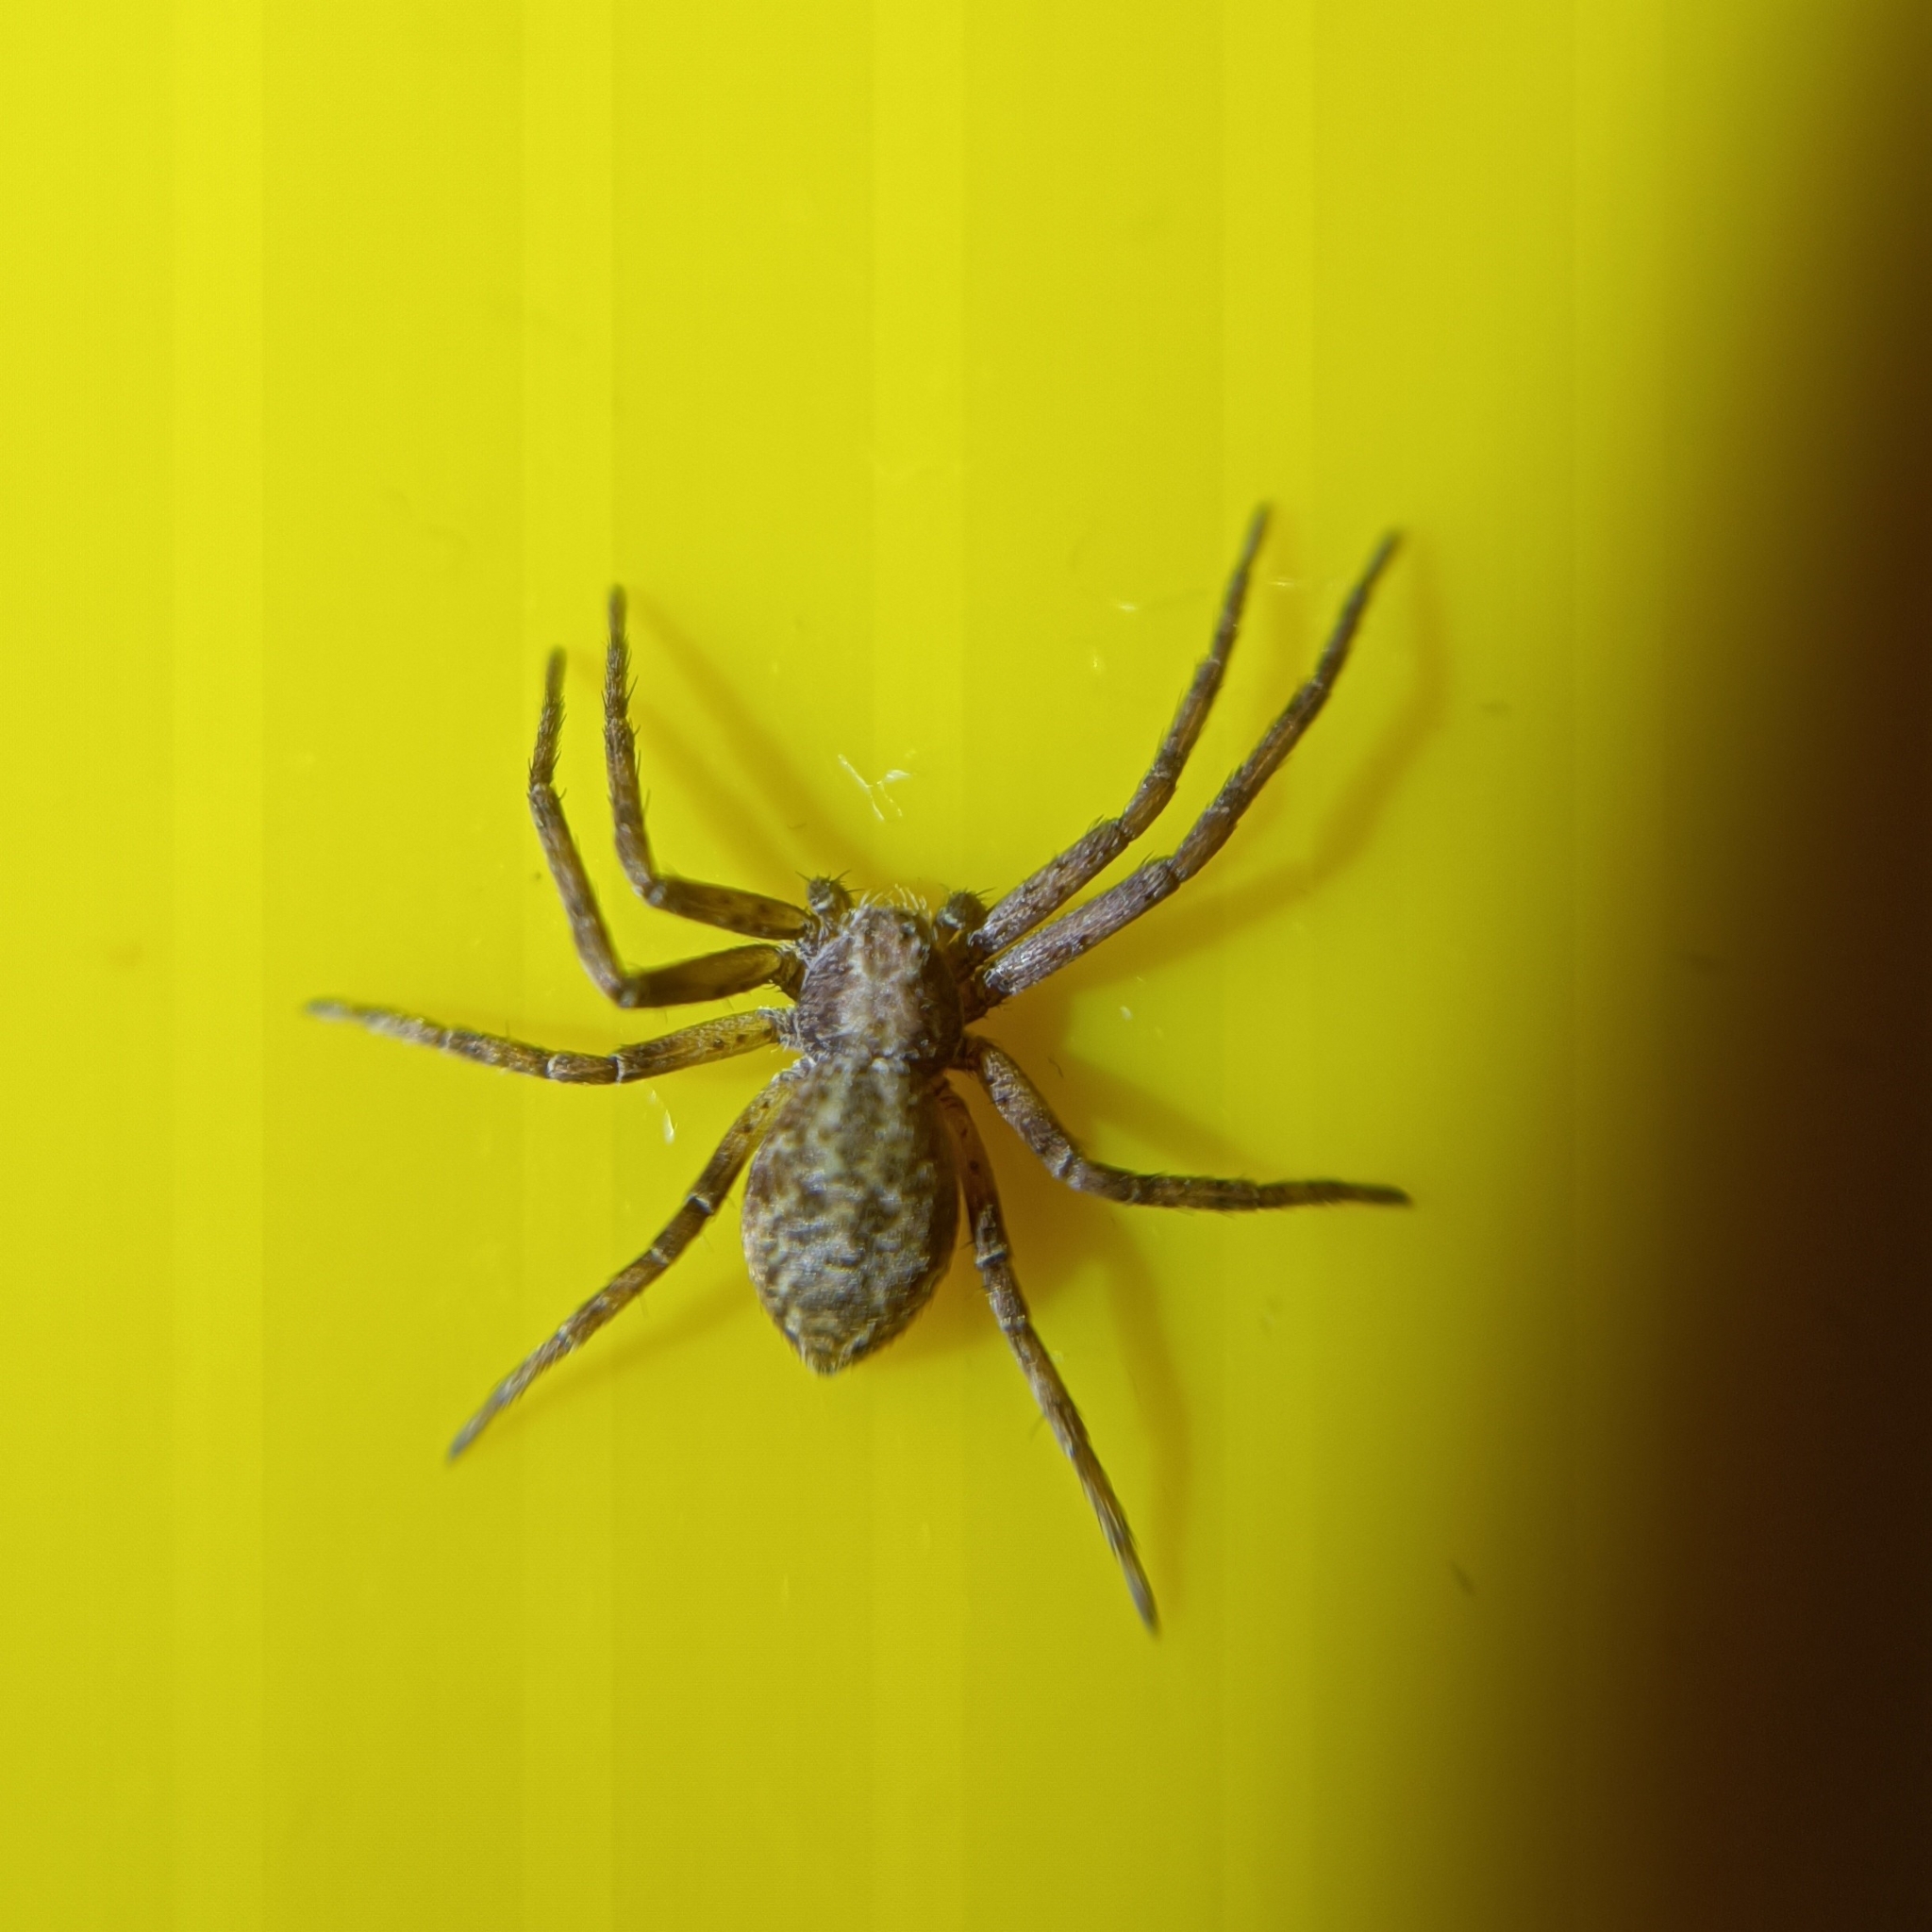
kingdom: Animalia
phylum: Arthropoda
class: Arachnida
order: Araneae
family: Philodromidae
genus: Philodromus
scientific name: Philodromus
